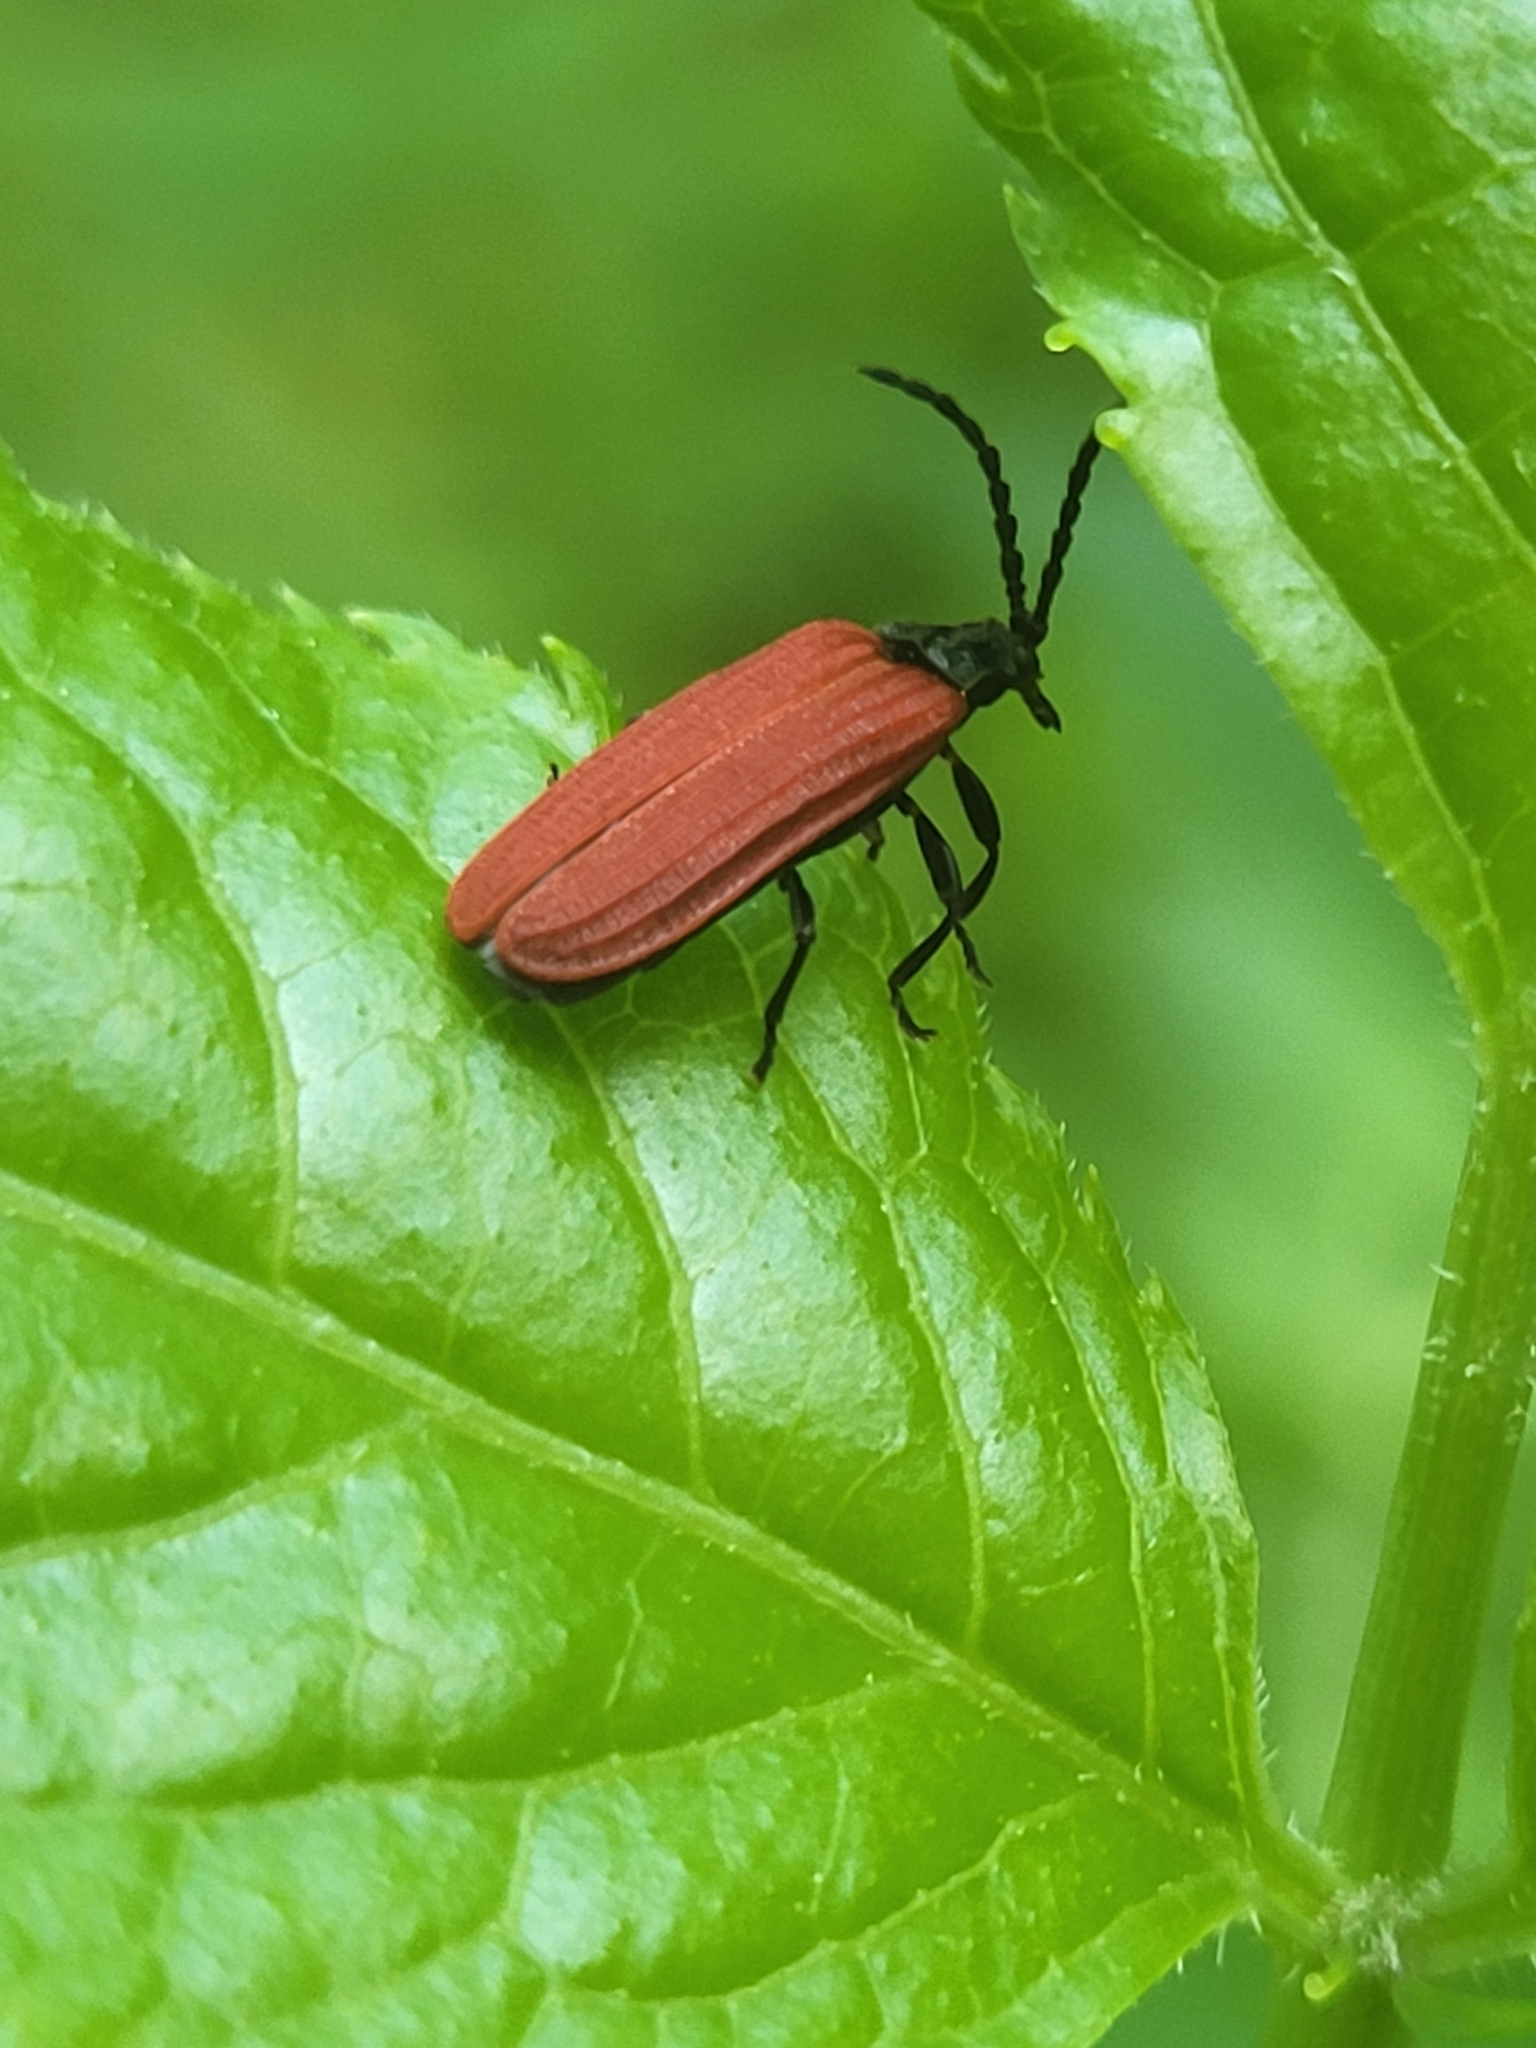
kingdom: Animalia
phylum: Arthropoda
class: Insecta
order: Coleoptera
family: Lycidae
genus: Pyropterus
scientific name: Pyropterus nigroruber
